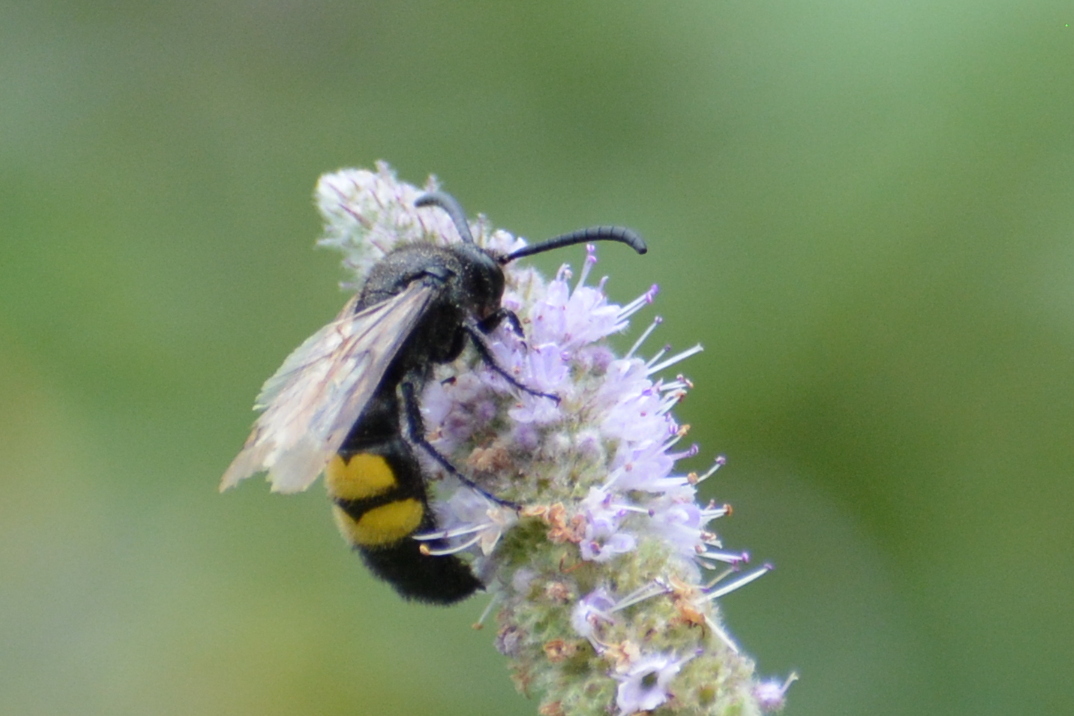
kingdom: Animalia
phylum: Arthropoda
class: Insecta
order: Hymenoptera
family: Scoliidae
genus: Scolia
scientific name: Scolia hirta
